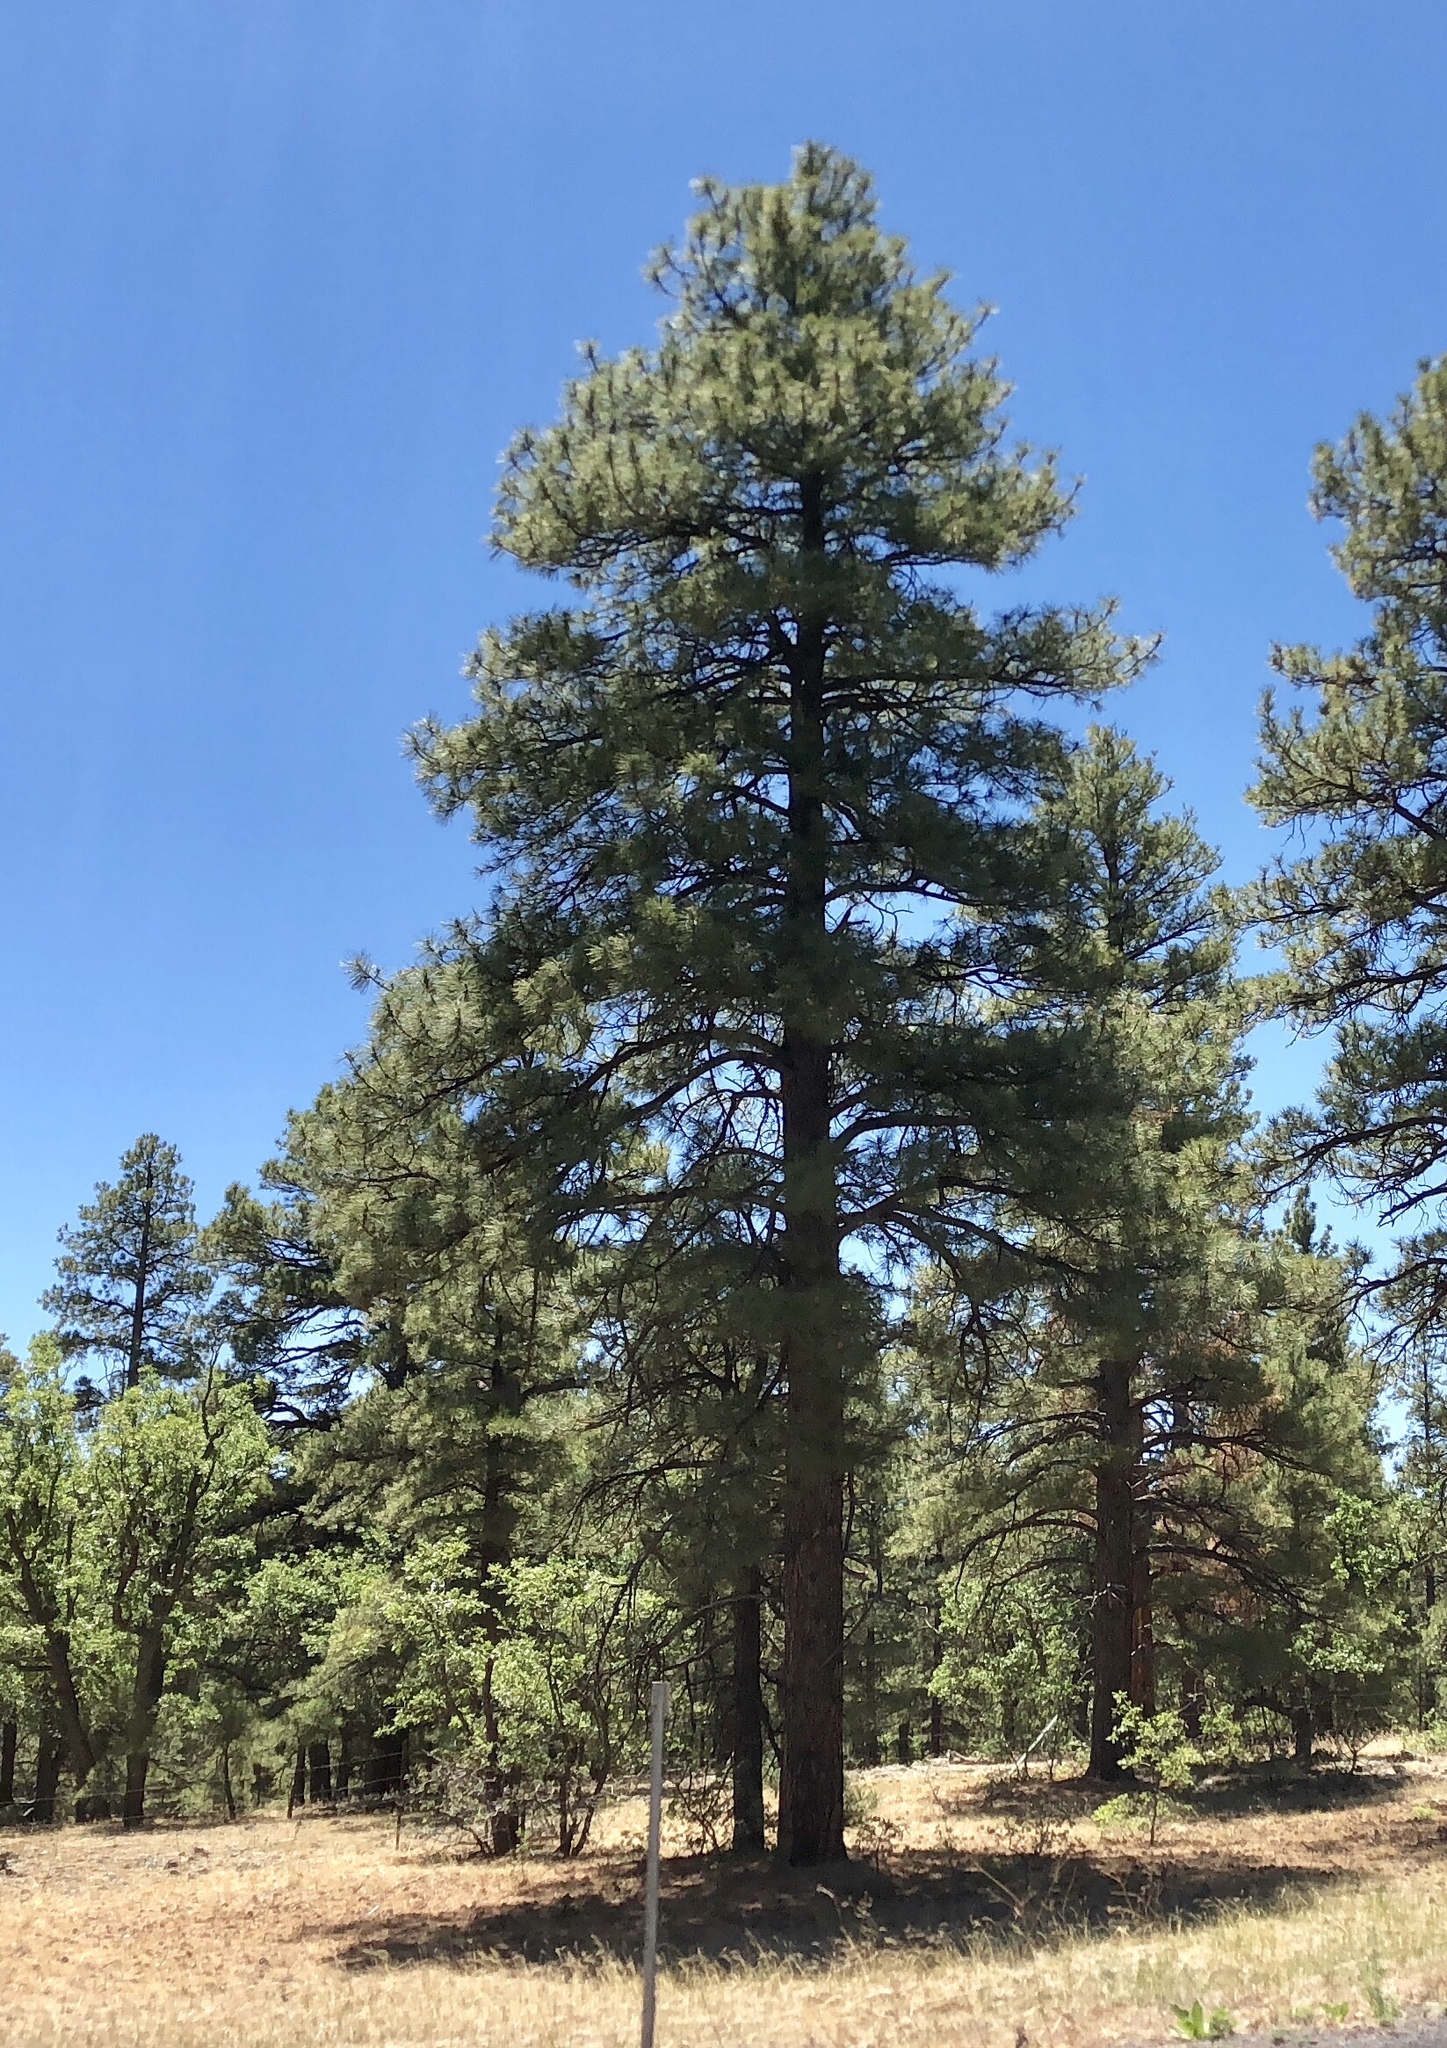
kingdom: Plantae
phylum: Tracheophyta
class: Pinopsida
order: Pinales
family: Pinaceae
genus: Pinus
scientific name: Pinus ponderosa
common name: Western yellow-pine
